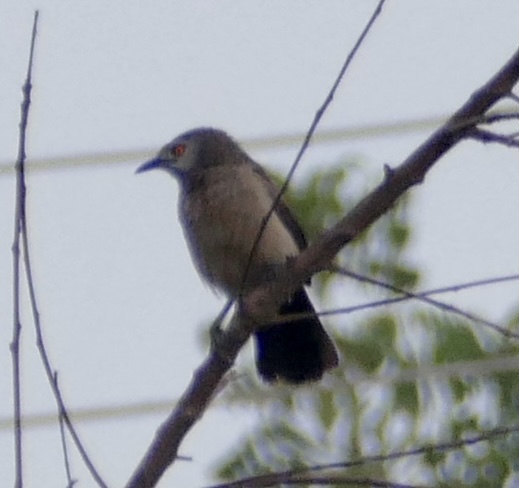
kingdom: Animalia
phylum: Chordata
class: Aves
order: Passeriformes
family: Leiothrichidae
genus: Turdoides
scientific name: Turdoides plebejus
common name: Brown babbler
